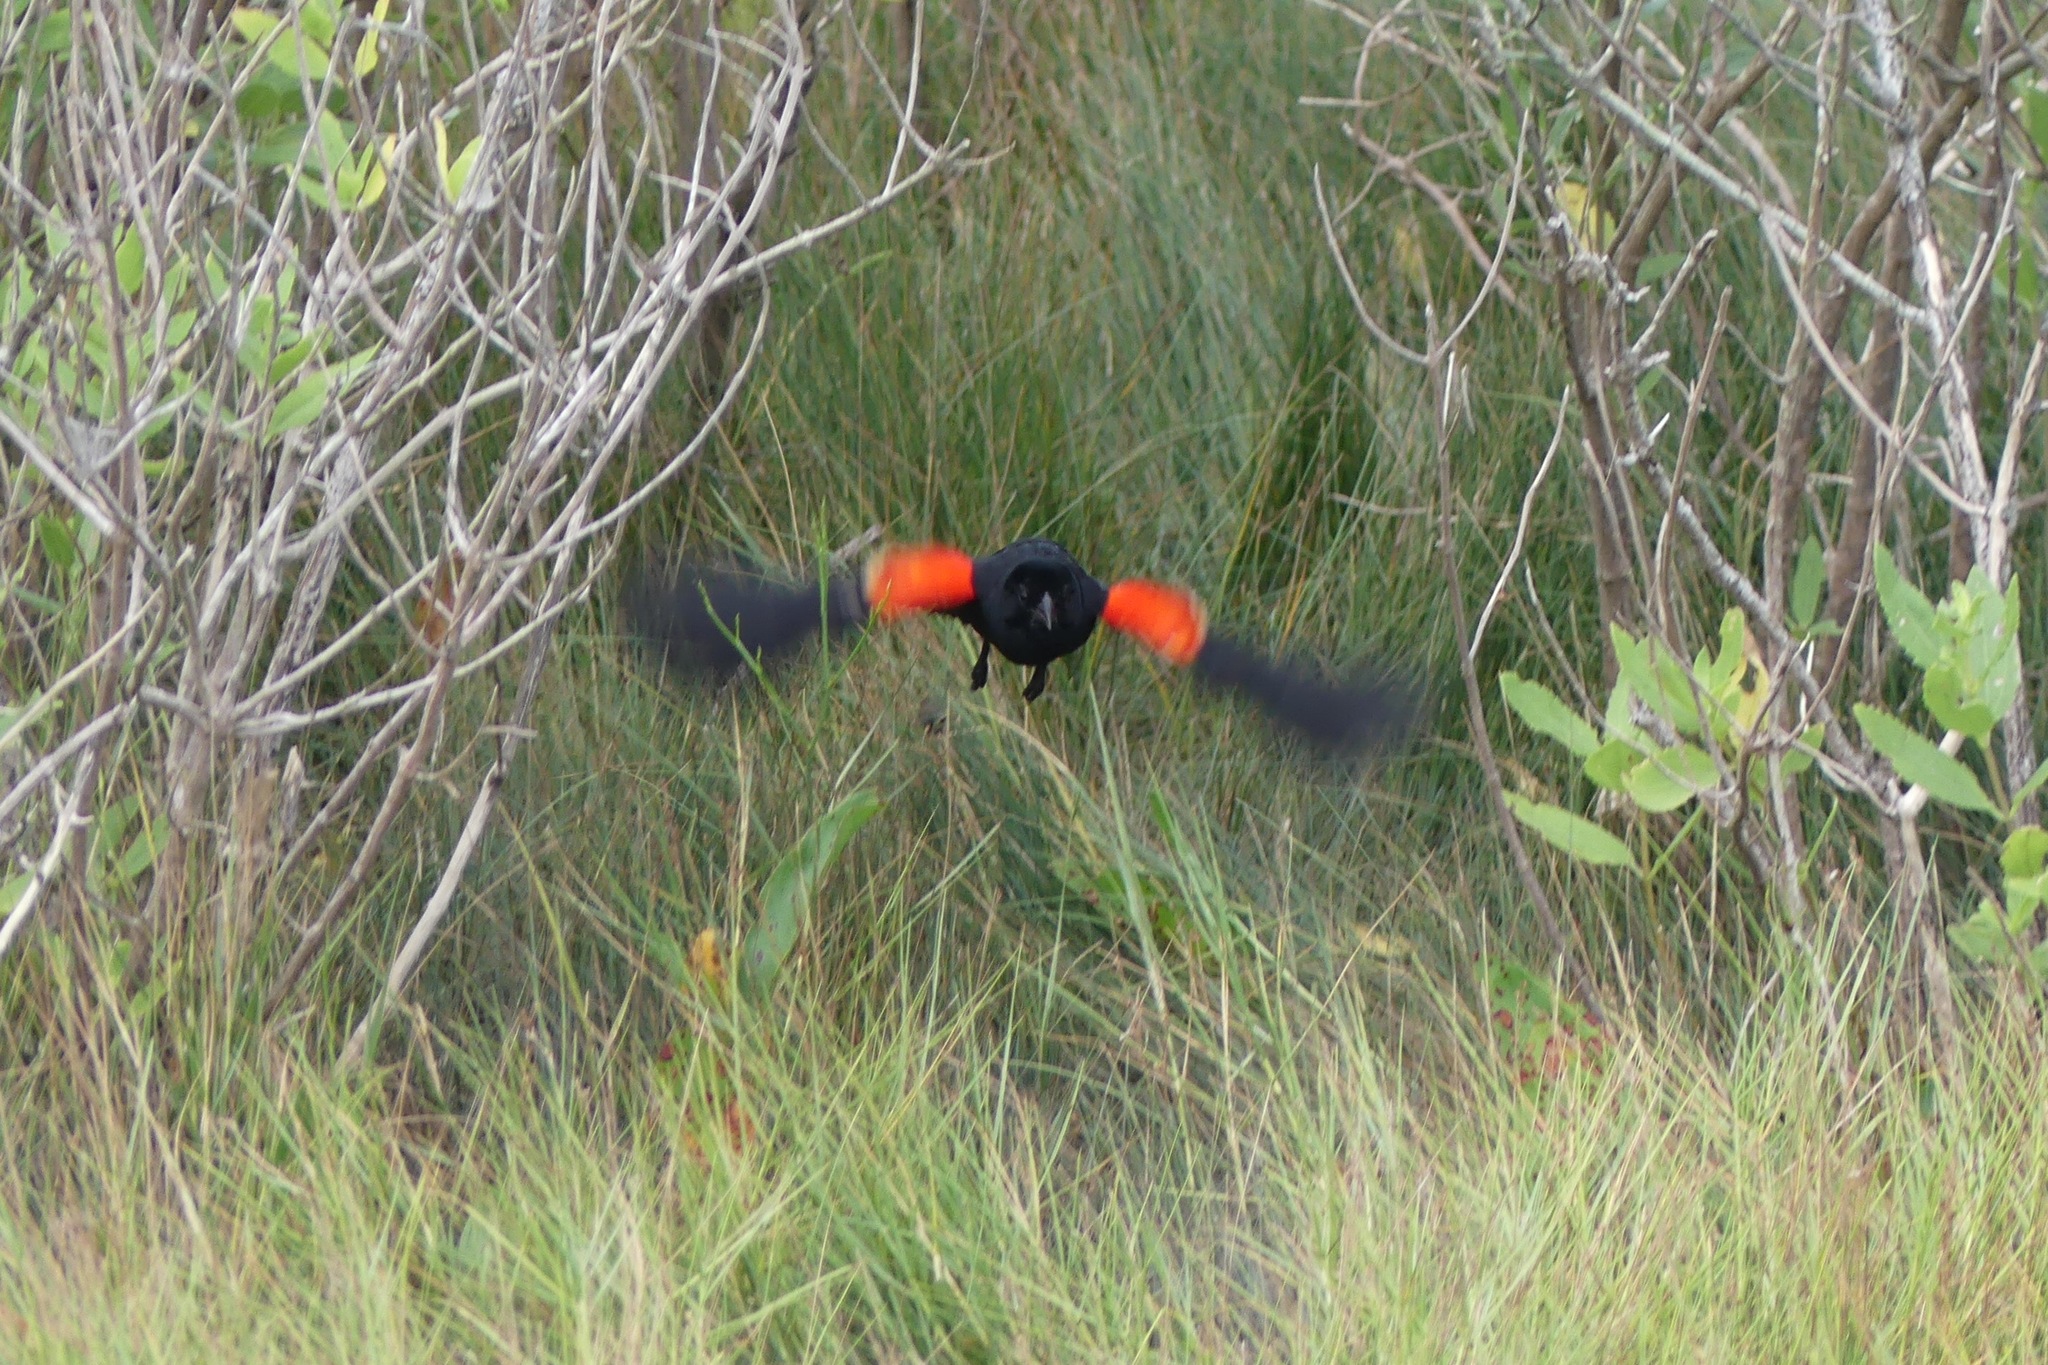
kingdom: Animalia
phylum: Chordata
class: Aves
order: Passeriformes
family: Icteridae
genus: Agelaius
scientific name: Agelaius phoeniceus
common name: Red-winged blackbird
